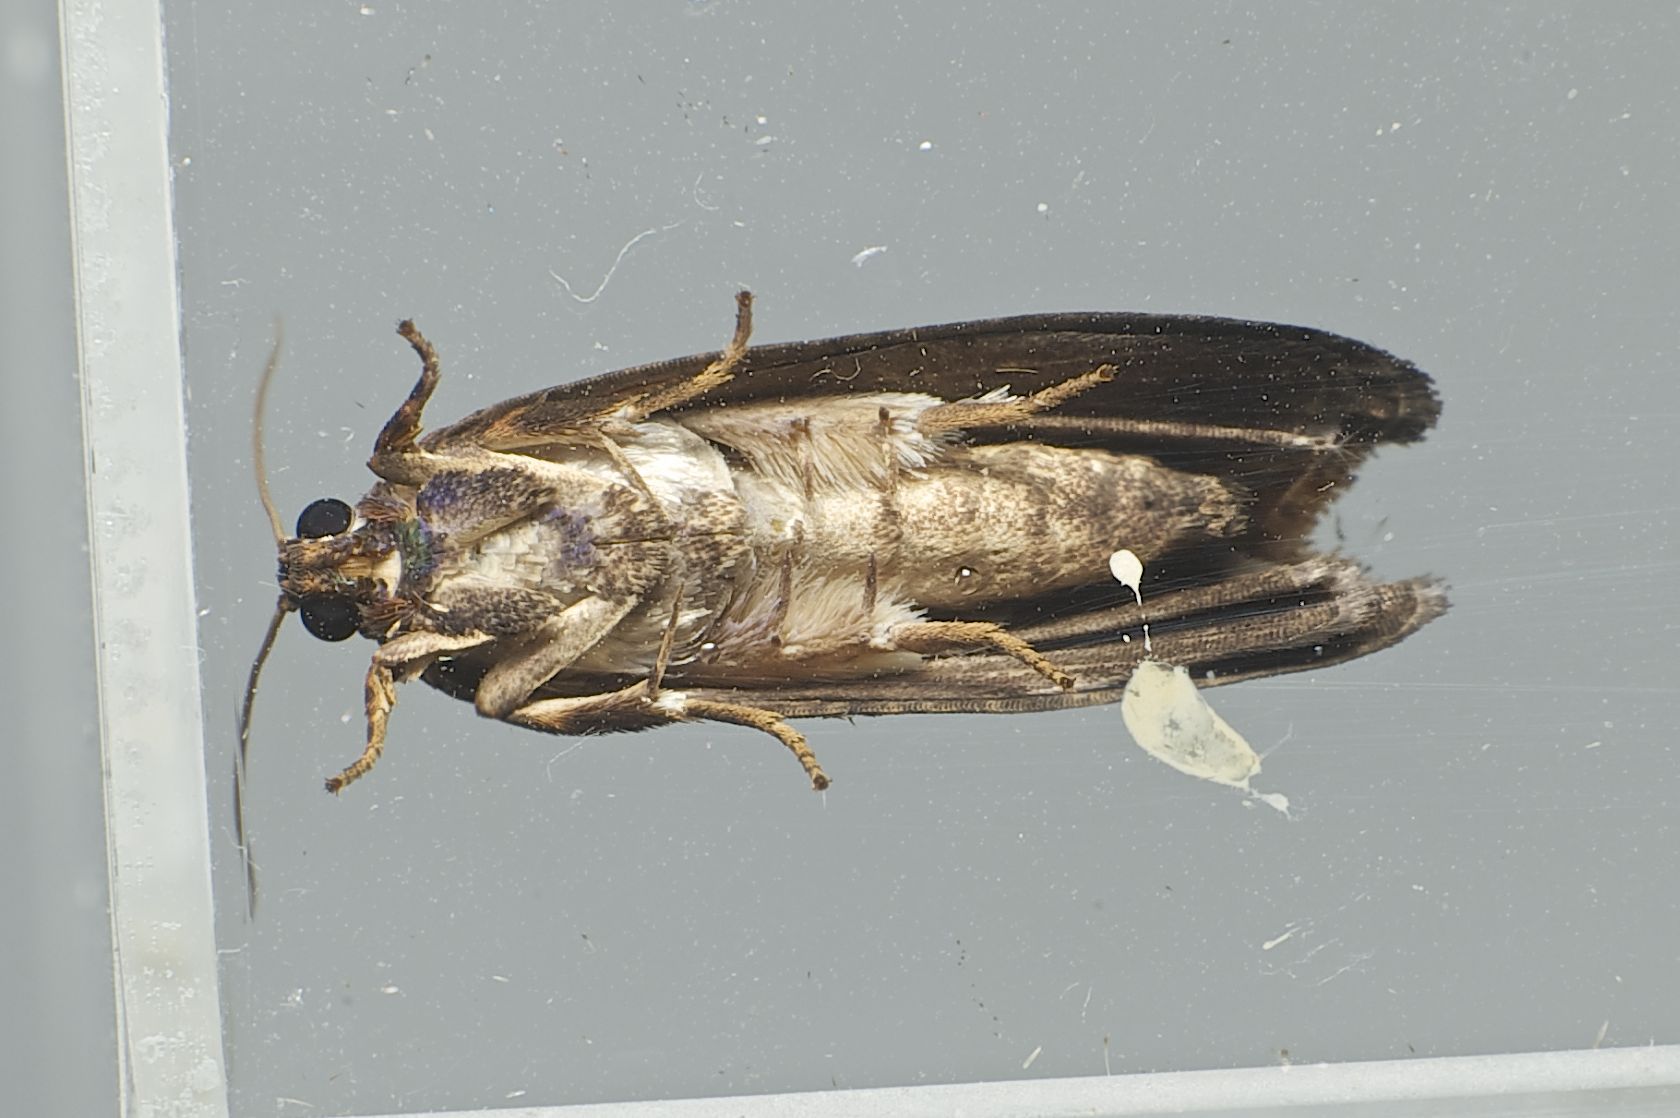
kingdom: Animalia
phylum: Arthropoda
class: Insecta
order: Lepidoptera
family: Tortricidae
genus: Arcesis
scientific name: Arcesis threnodes
